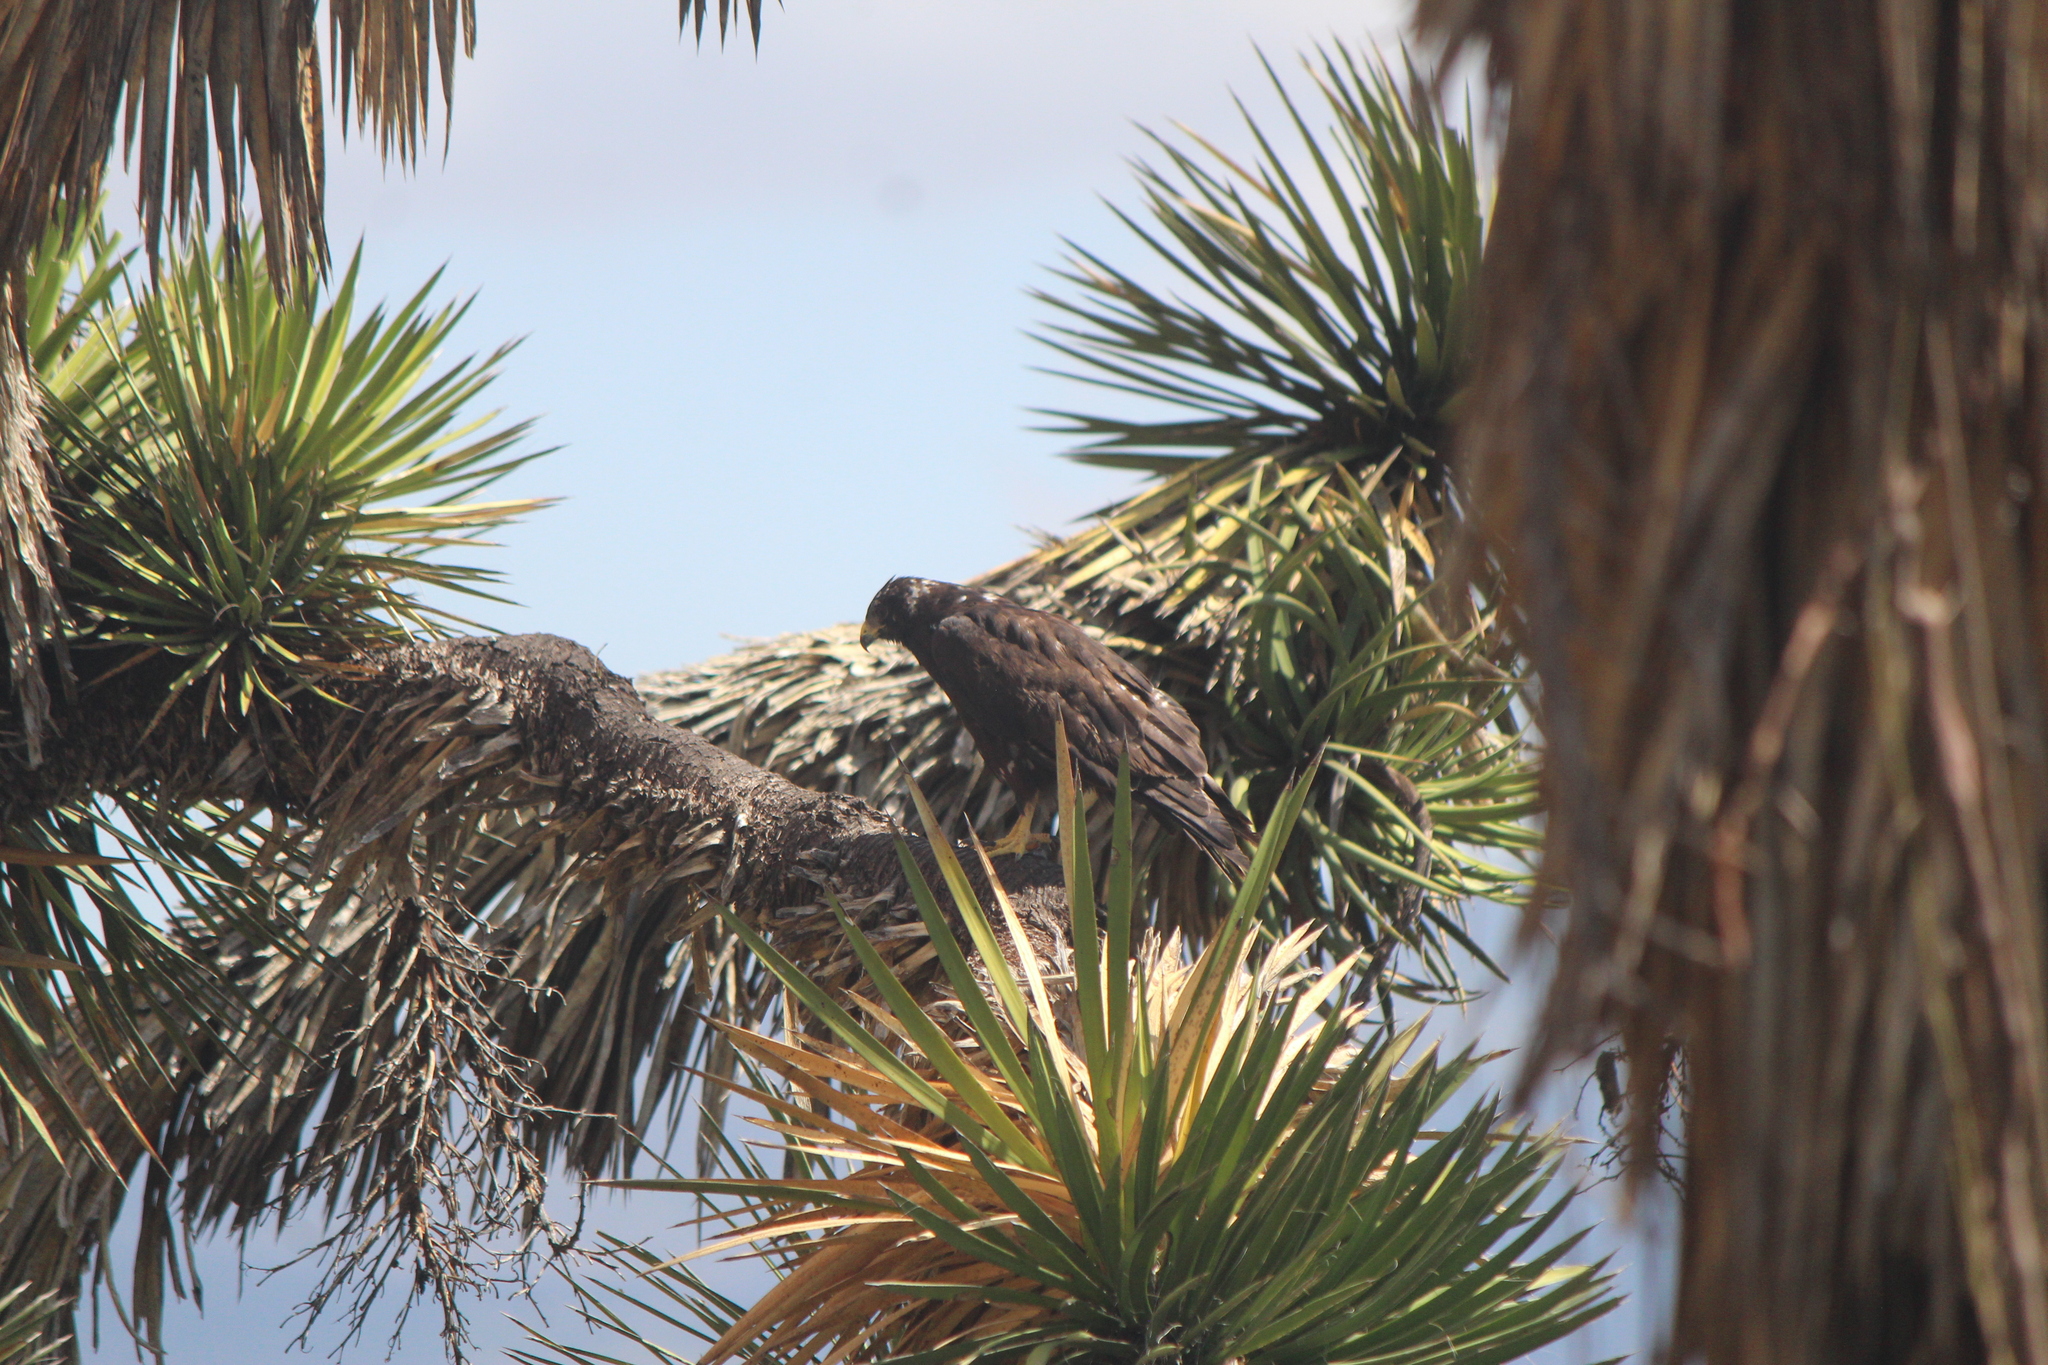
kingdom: Animalia
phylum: Chordata
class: Aves
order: Accipitriformes
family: Accipitridae
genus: Buteo
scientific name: Buteo albonotatus
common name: Zone-tailed hawk
